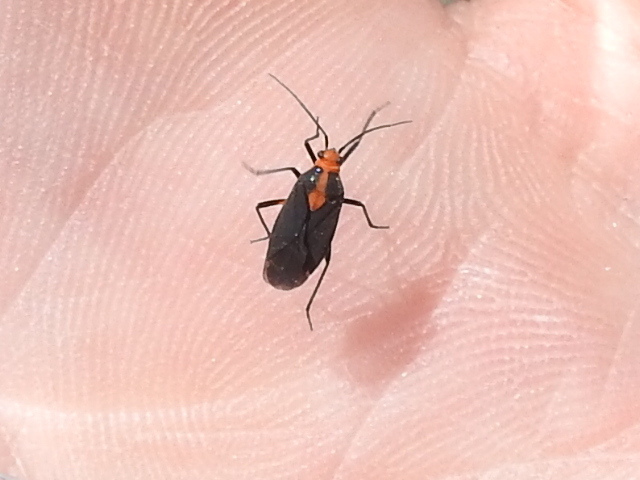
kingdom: Animalia
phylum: Arthropoda
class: Insecta
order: Hemiptera
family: Miridae
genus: Prepops
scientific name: Prepops rubrovittatus
